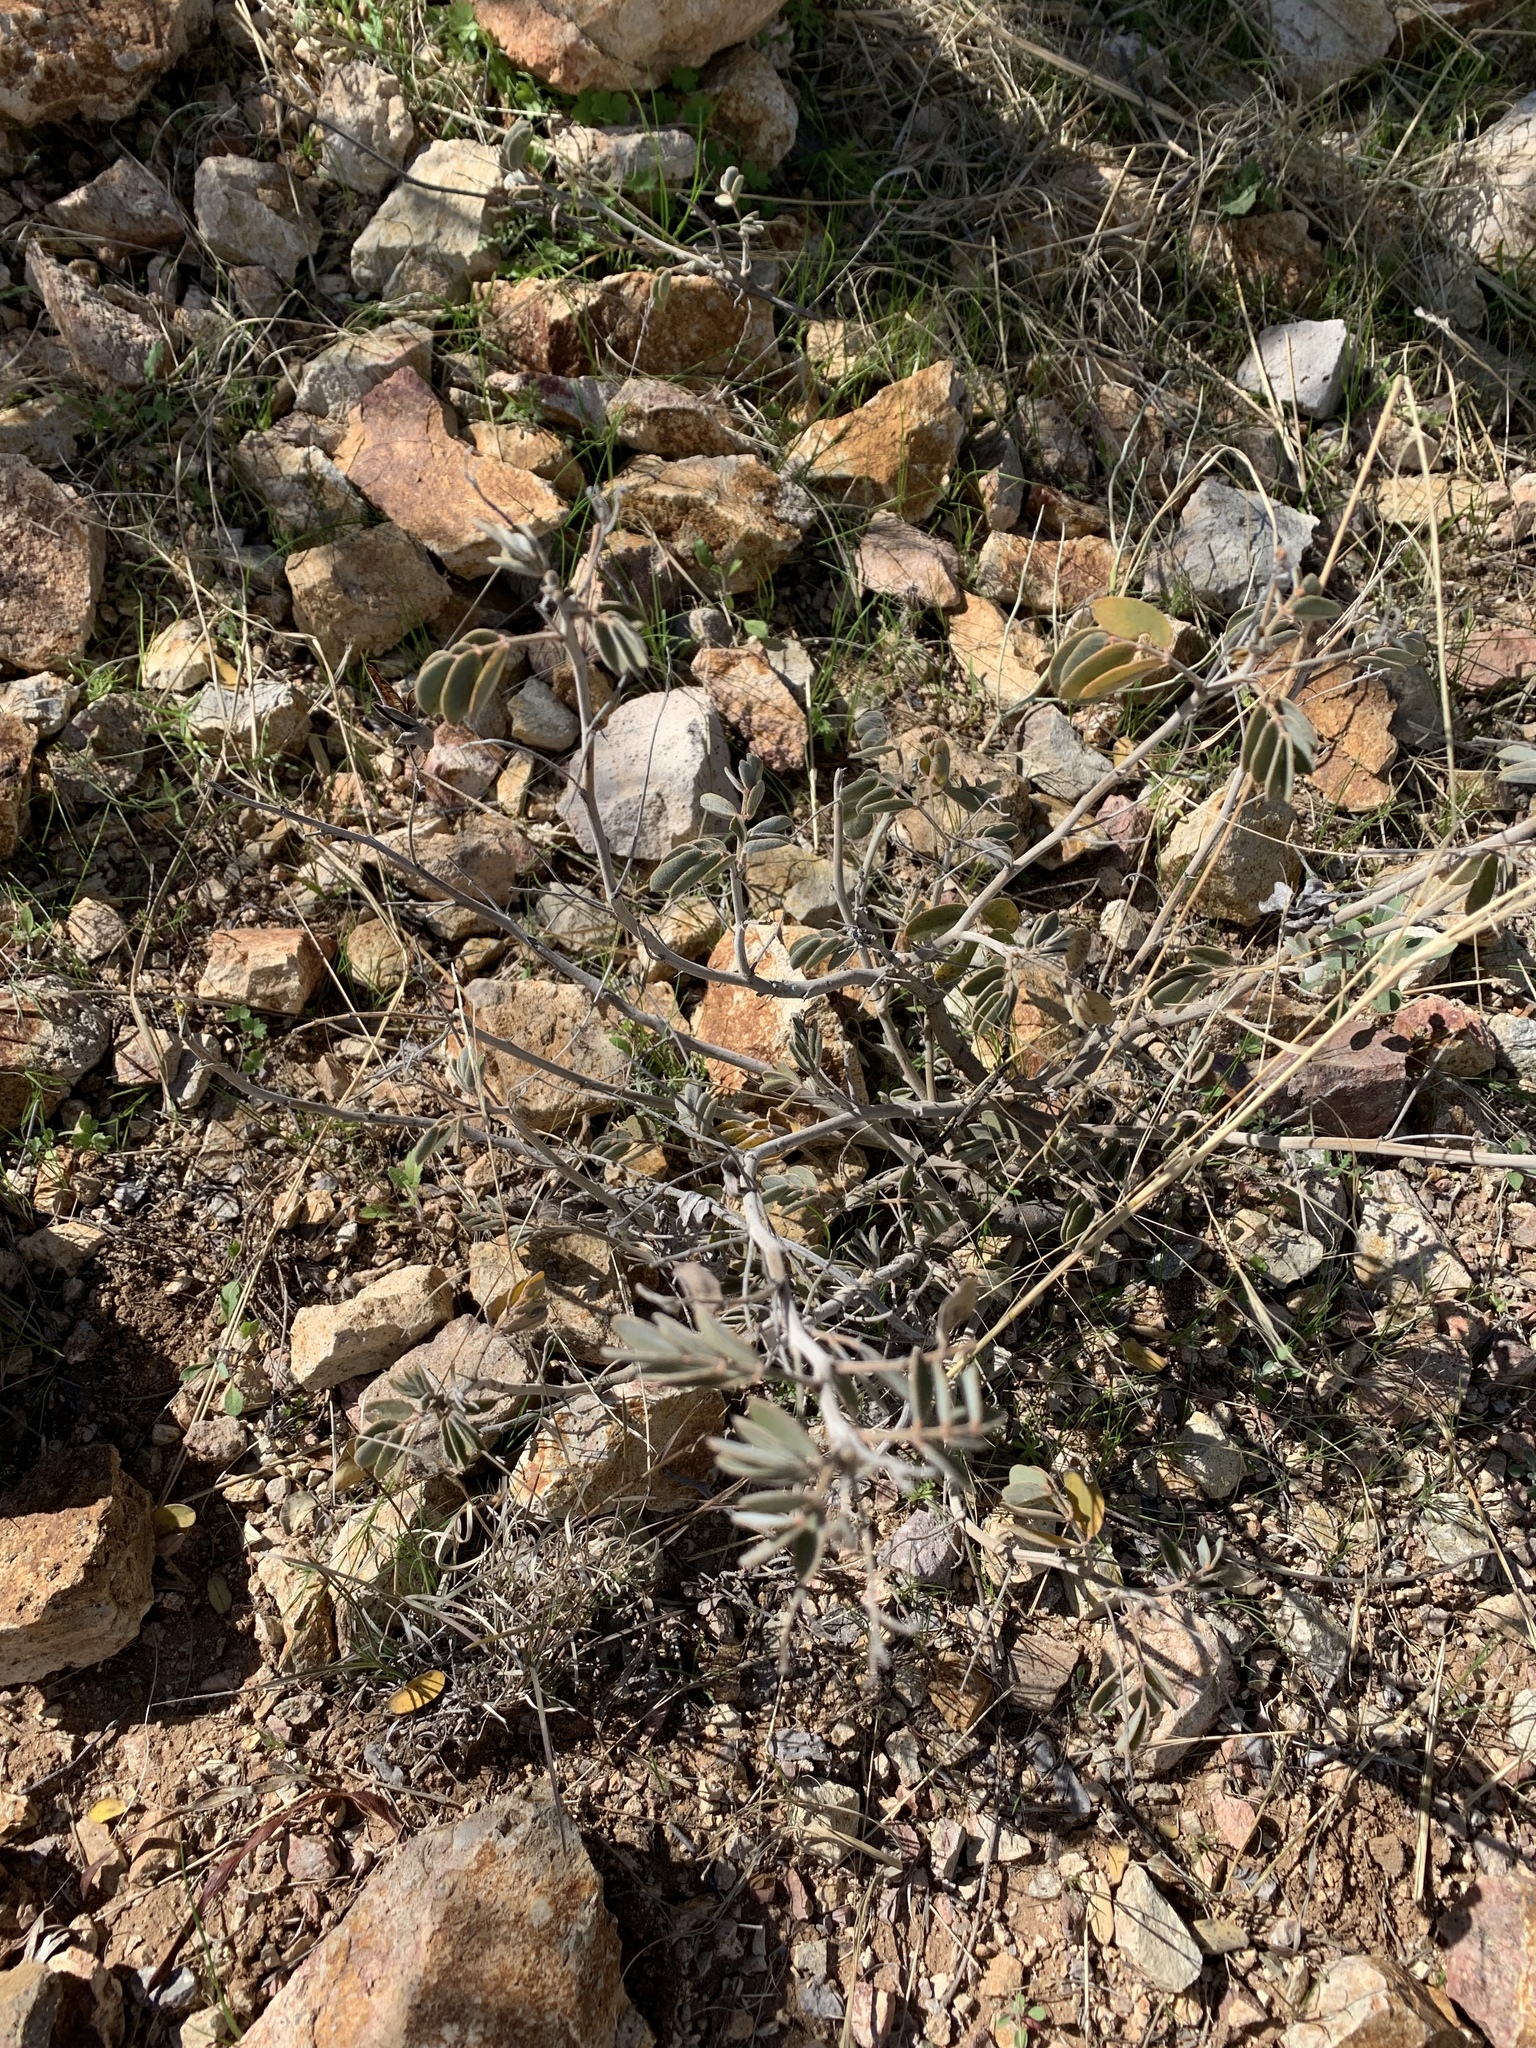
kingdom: Plantae
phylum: Tracheophyta
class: Magnoliopsida
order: Fabales
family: Fabaceae
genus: Senna
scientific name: Senna covesii
